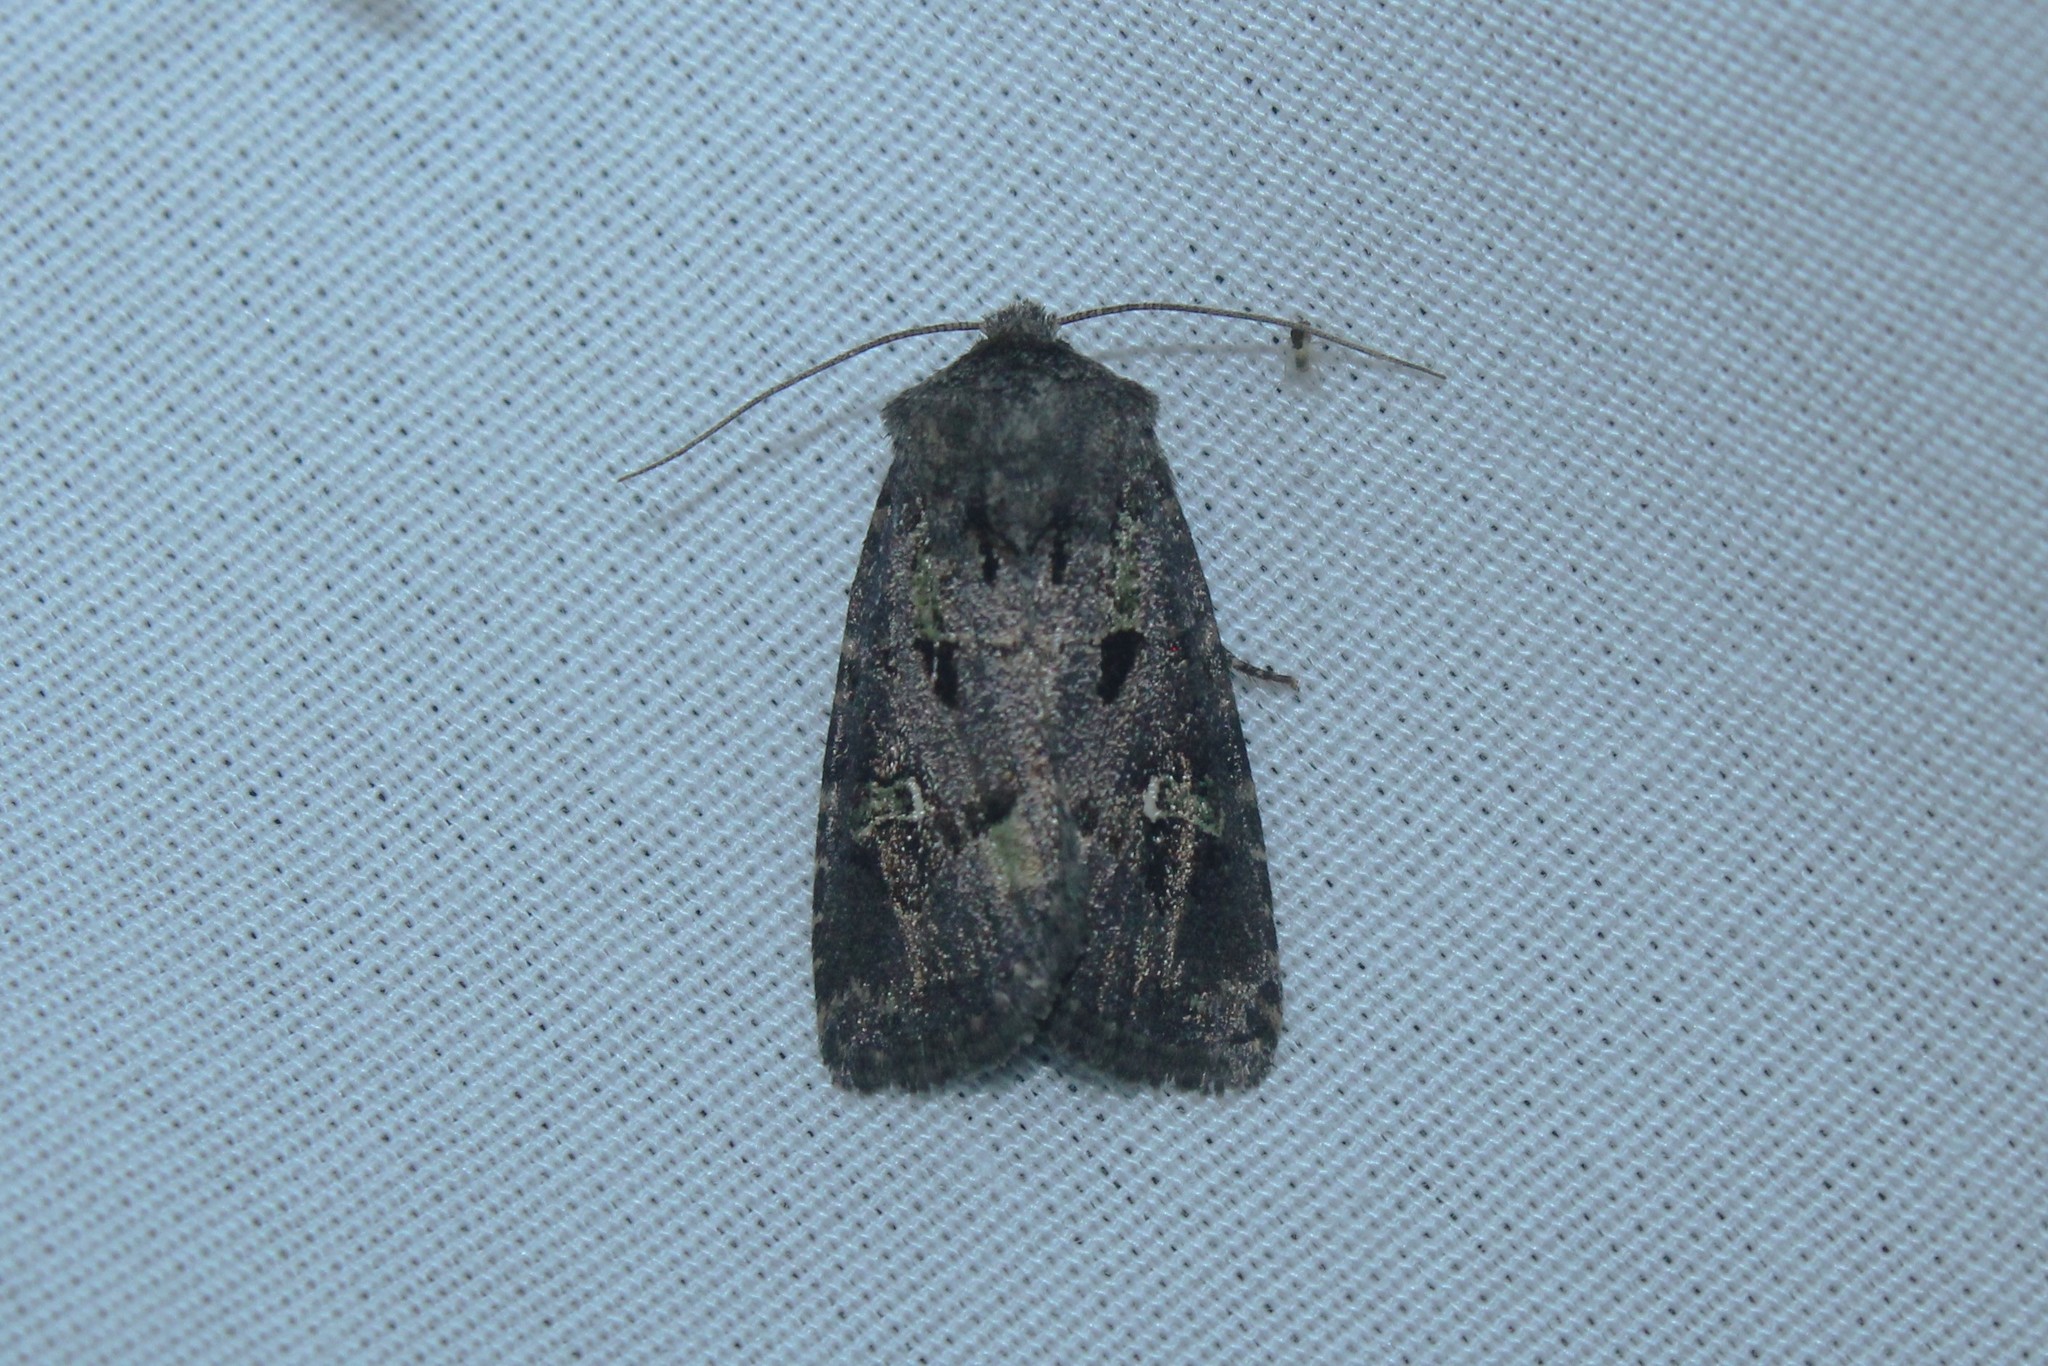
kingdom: Animalia
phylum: Arthropoda
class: Insecta
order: Lepidoptera
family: Noctuidae
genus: Lacinipolia
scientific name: Lacinipolia renigera
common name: Kidney-spotted minor
